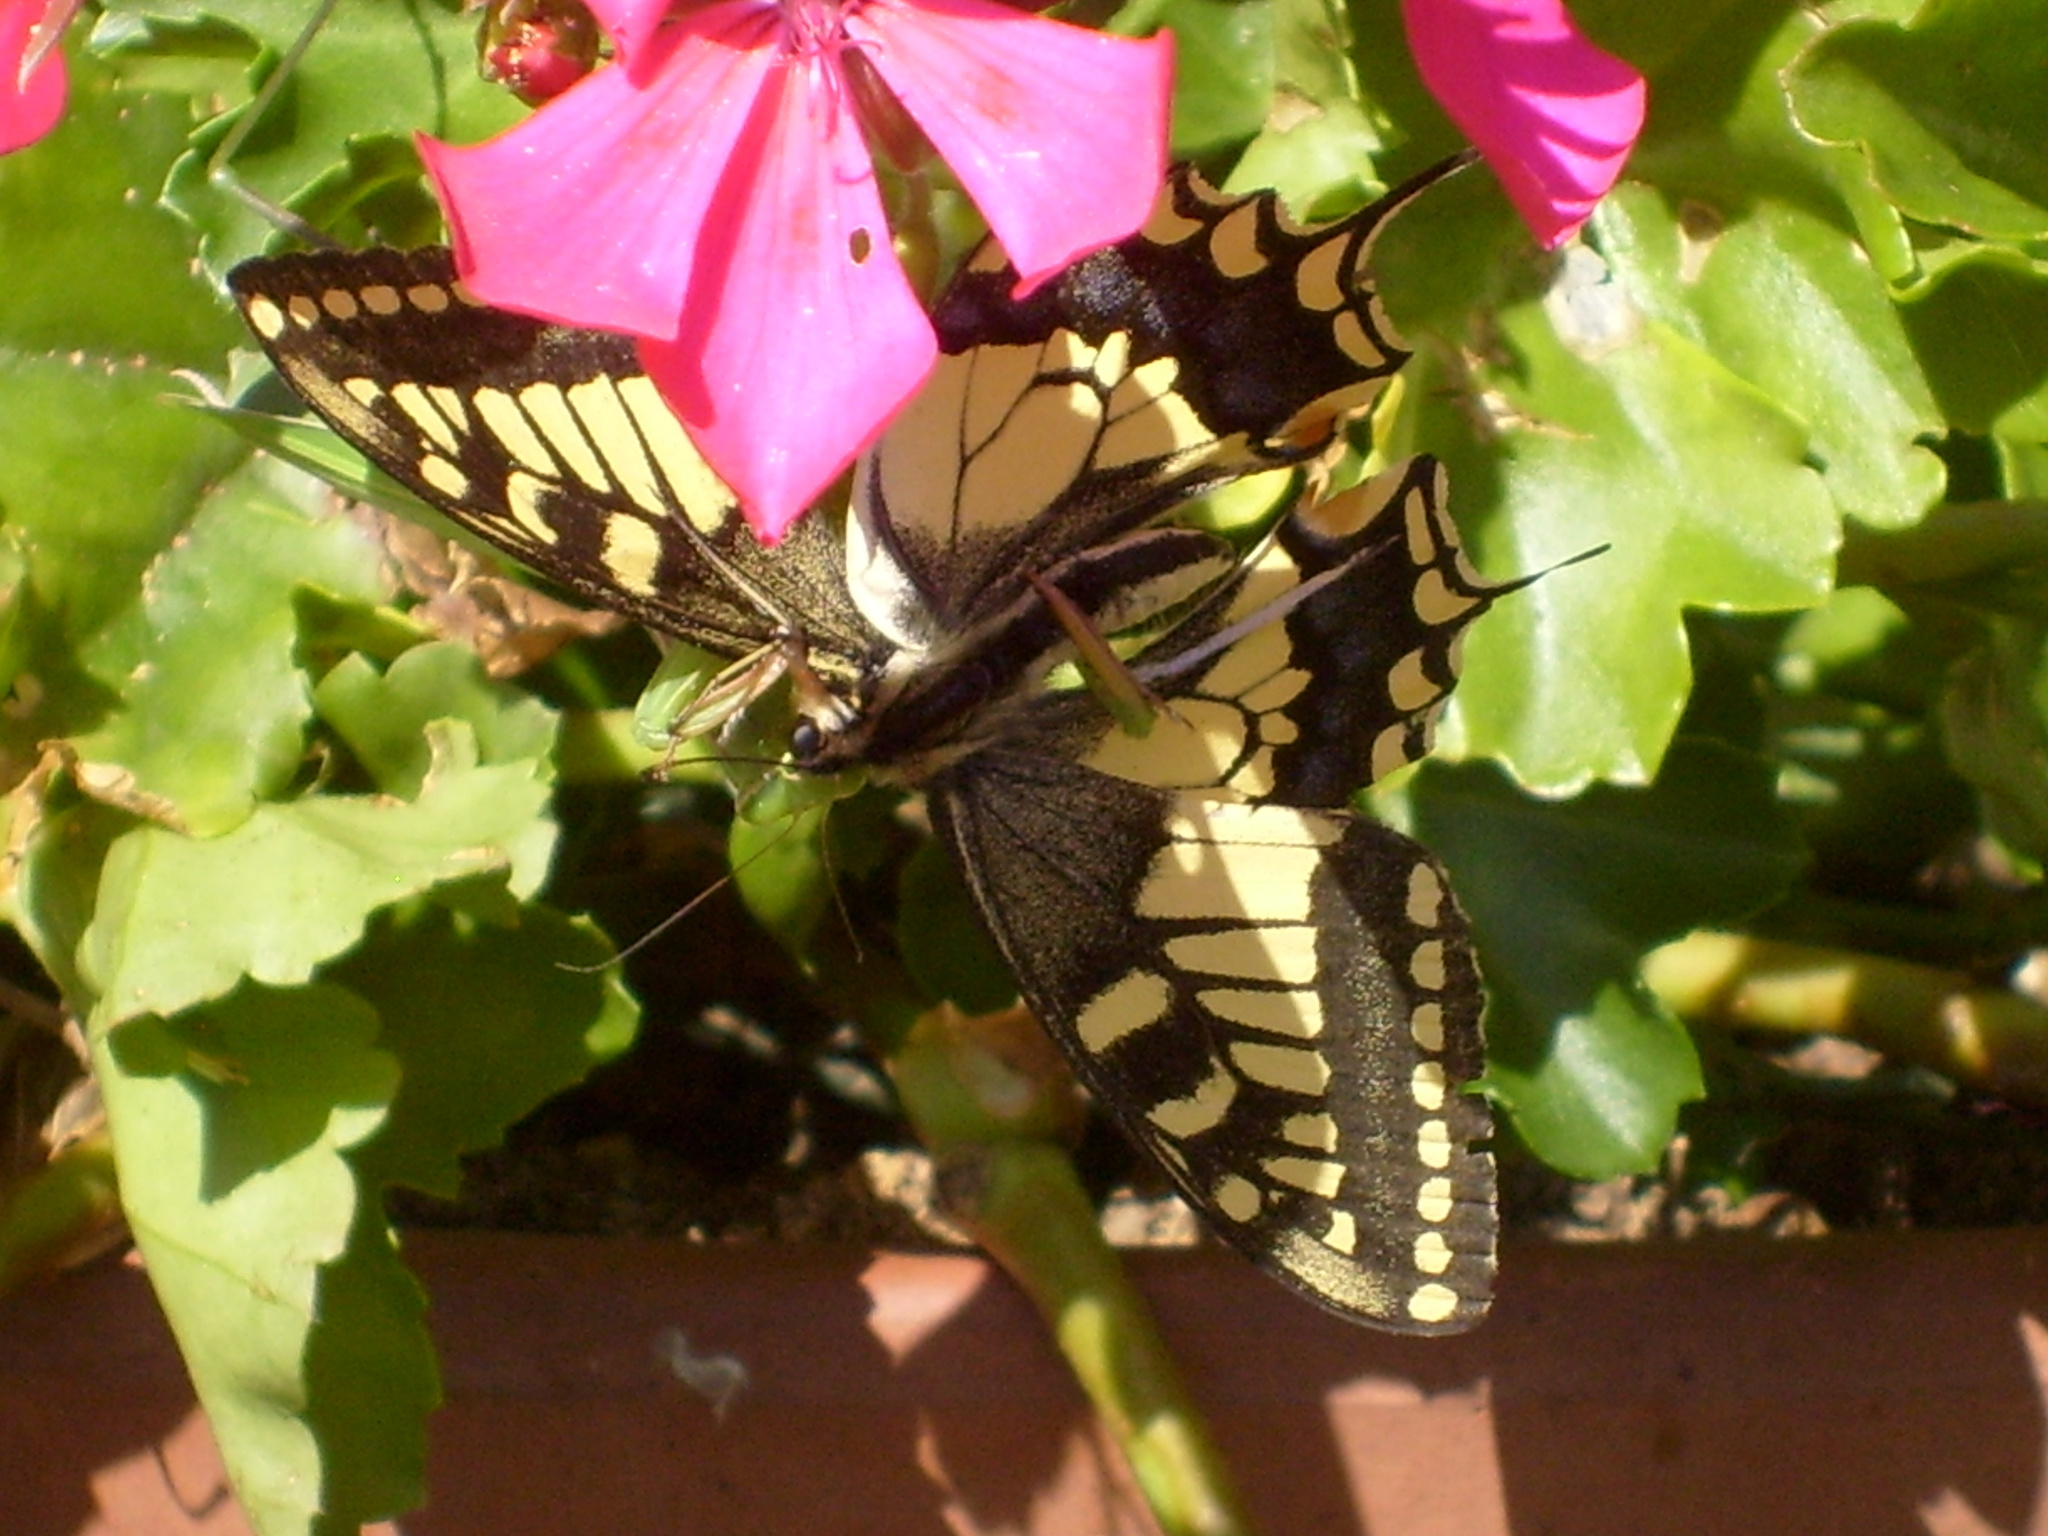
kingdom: Animalia
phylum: Arthropoda
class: Insecta
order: Mantodea
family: Mantidae
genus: Mantis
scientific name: Mantis religiosa
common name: Praying mantis
